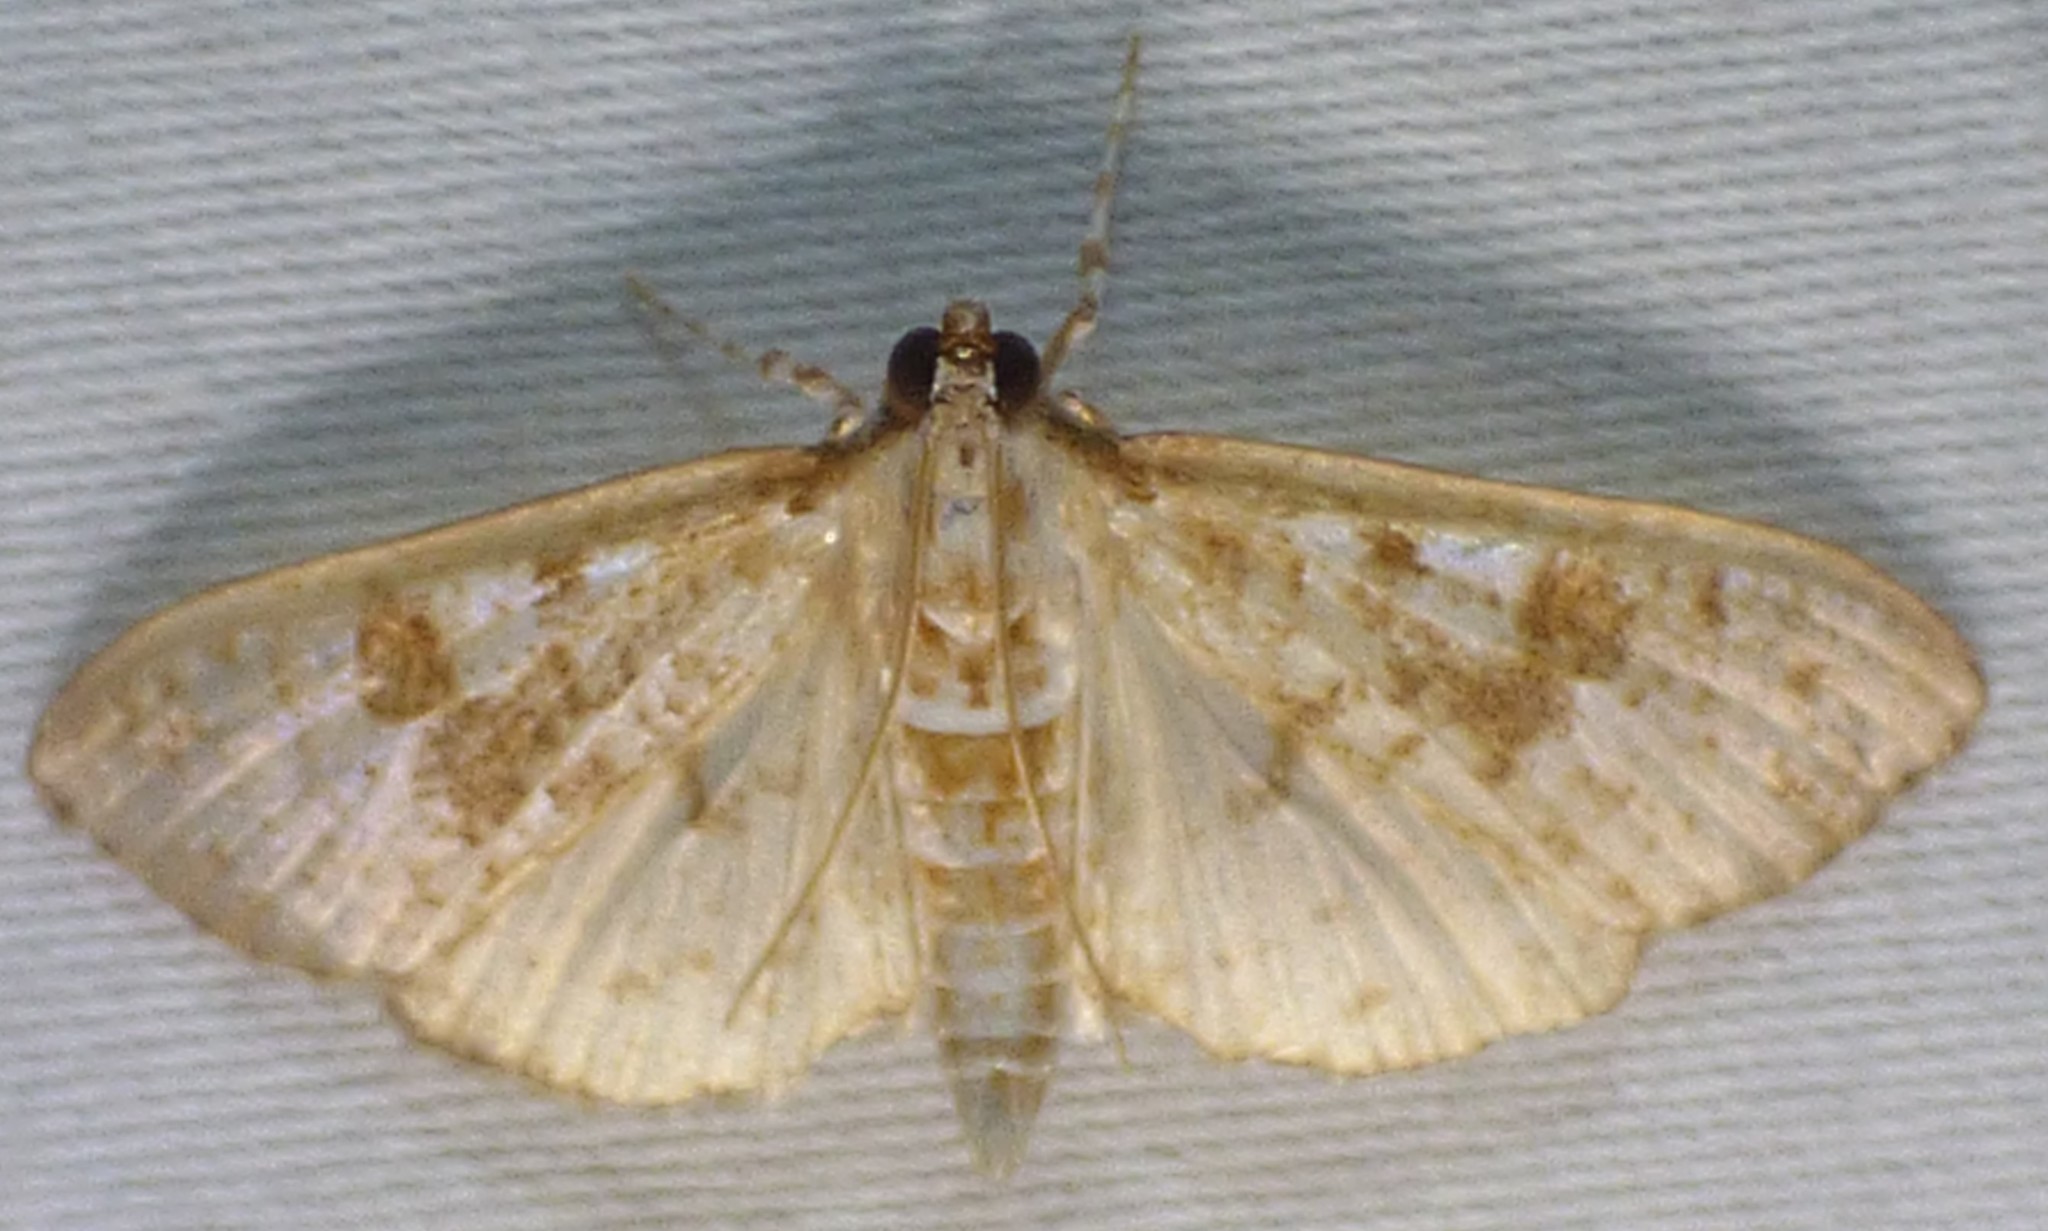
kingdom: Animalia
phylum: Arthropoda
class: Insecta
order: Lepidoptera
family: Crambidae
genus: Palpita
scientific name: Palpita freemanalis
